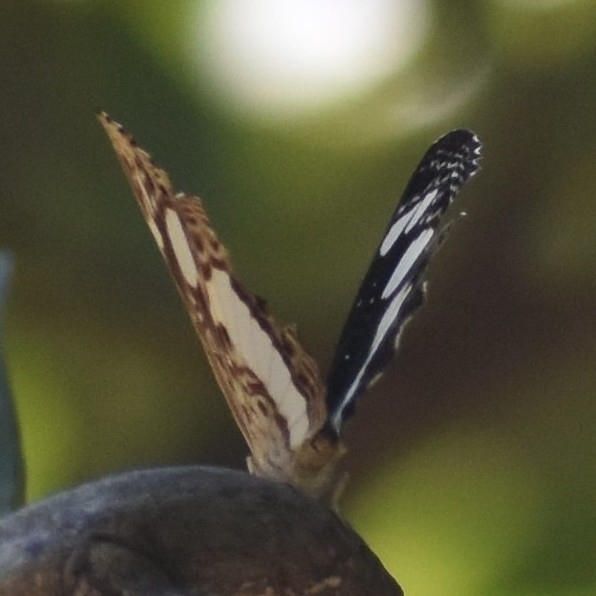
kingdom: Animalia
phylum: Arthropoda
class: Insecta
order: Lepidoptera
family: Nymphalidae
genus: Neptis
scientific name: Neptis saclava
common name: Small spotted sailor
